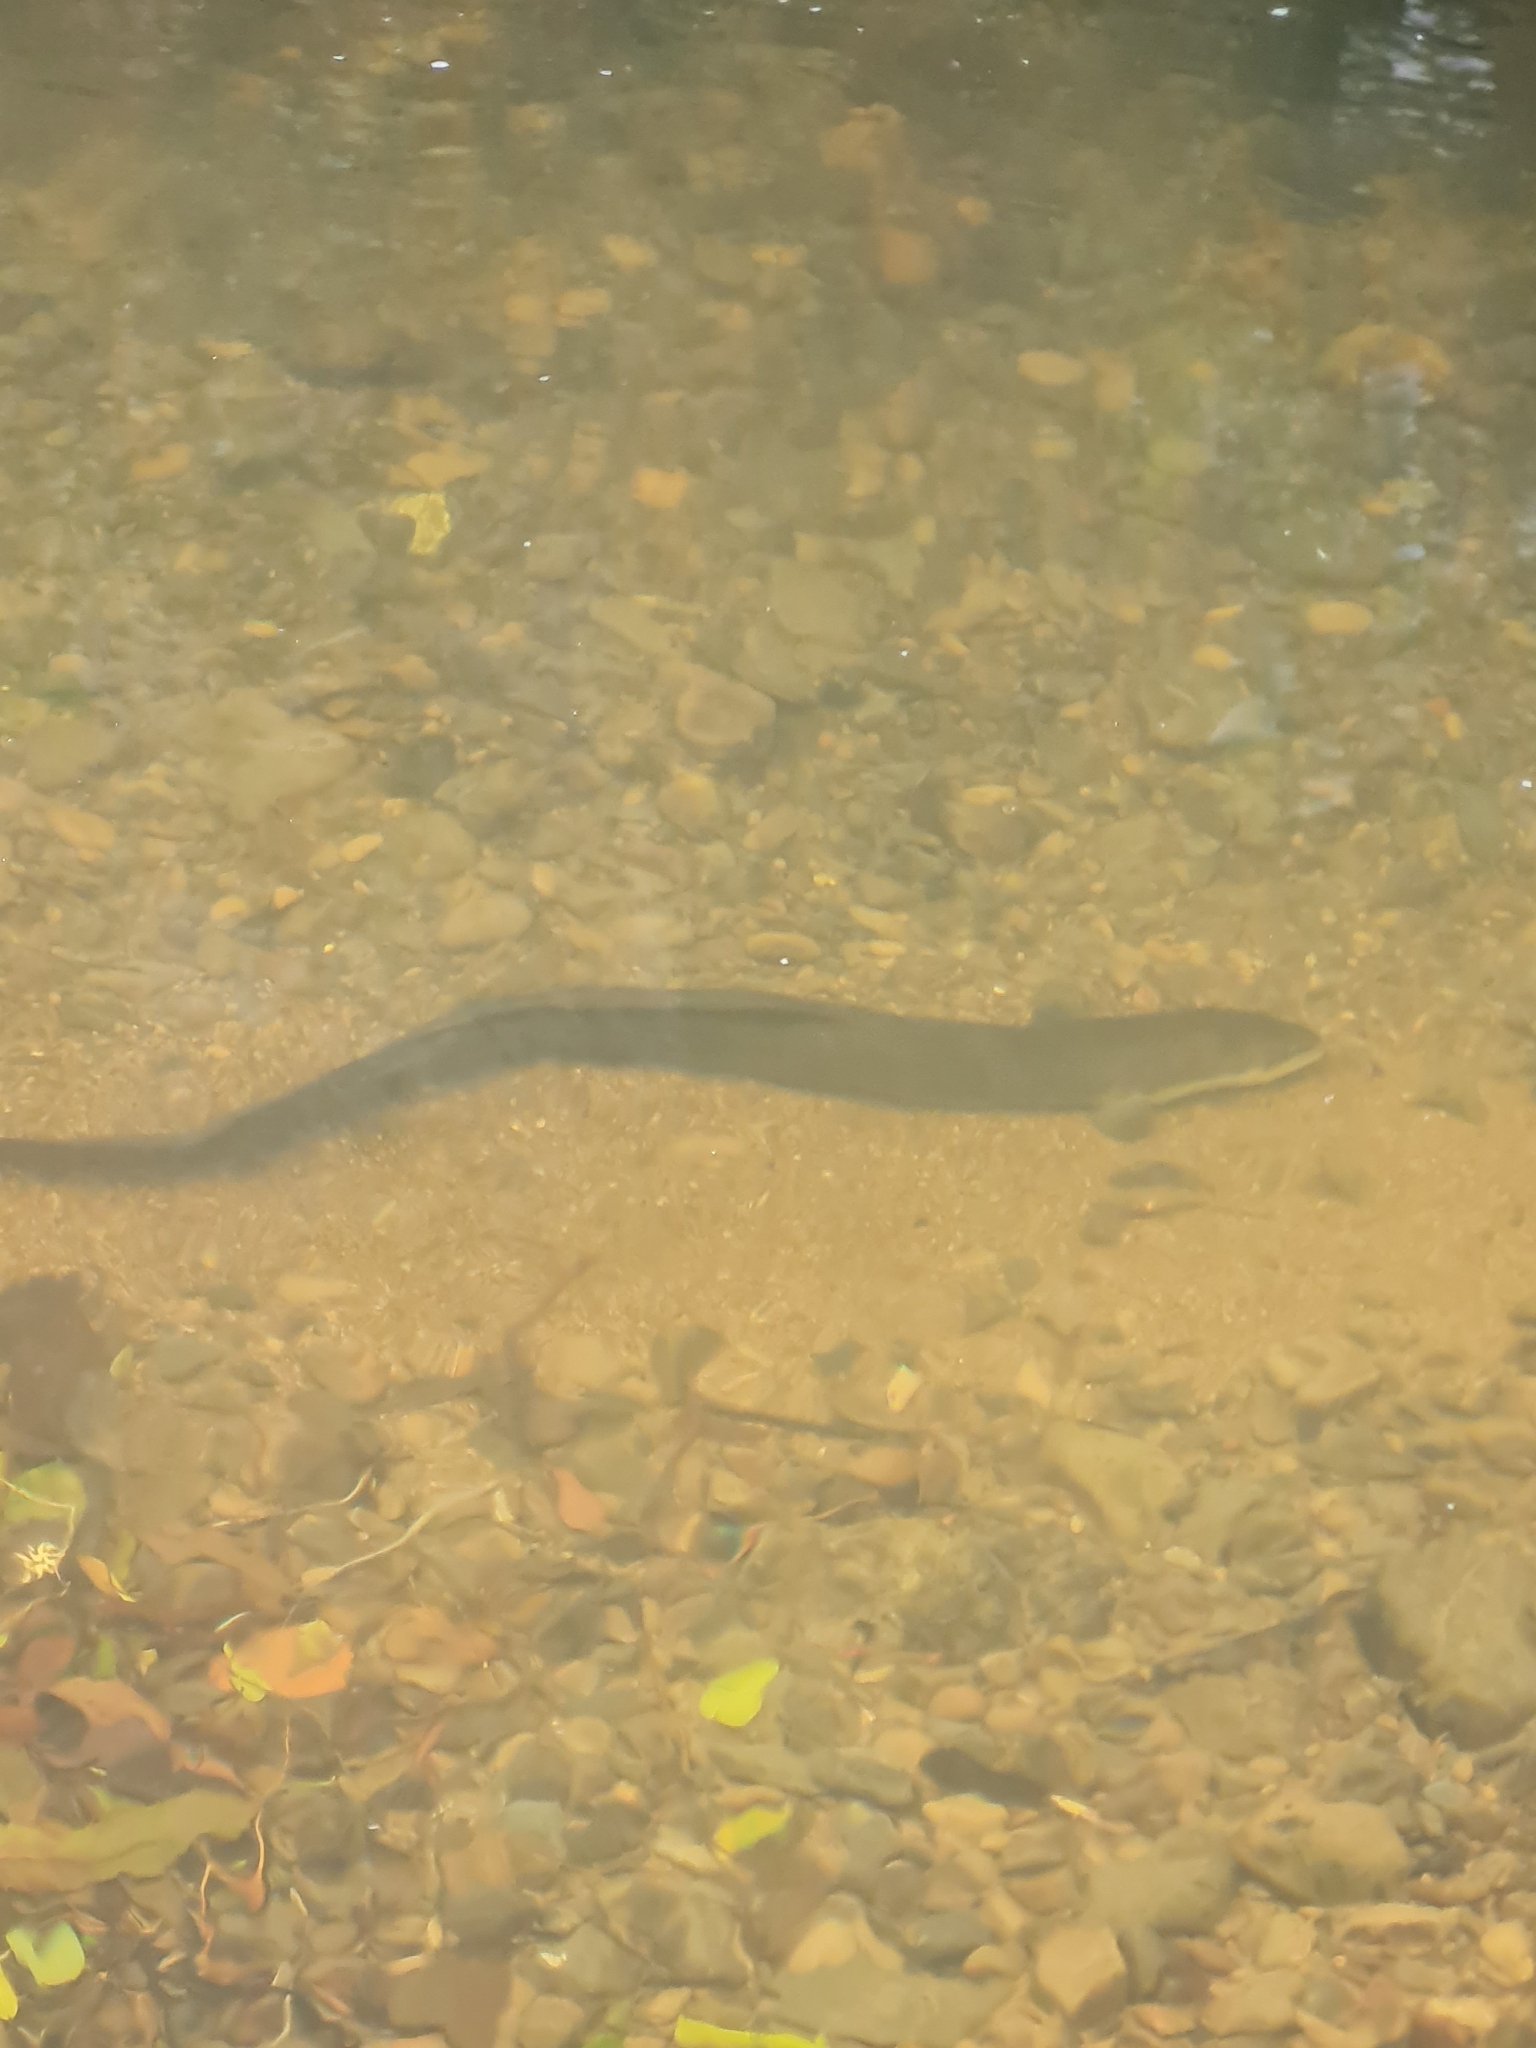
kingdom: Animalia
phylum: Chordata
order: Anguilliformes
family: Anguillidae
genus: Anguilla
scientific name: Anguilla dieffenbachii
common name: New zealand longfin eel
